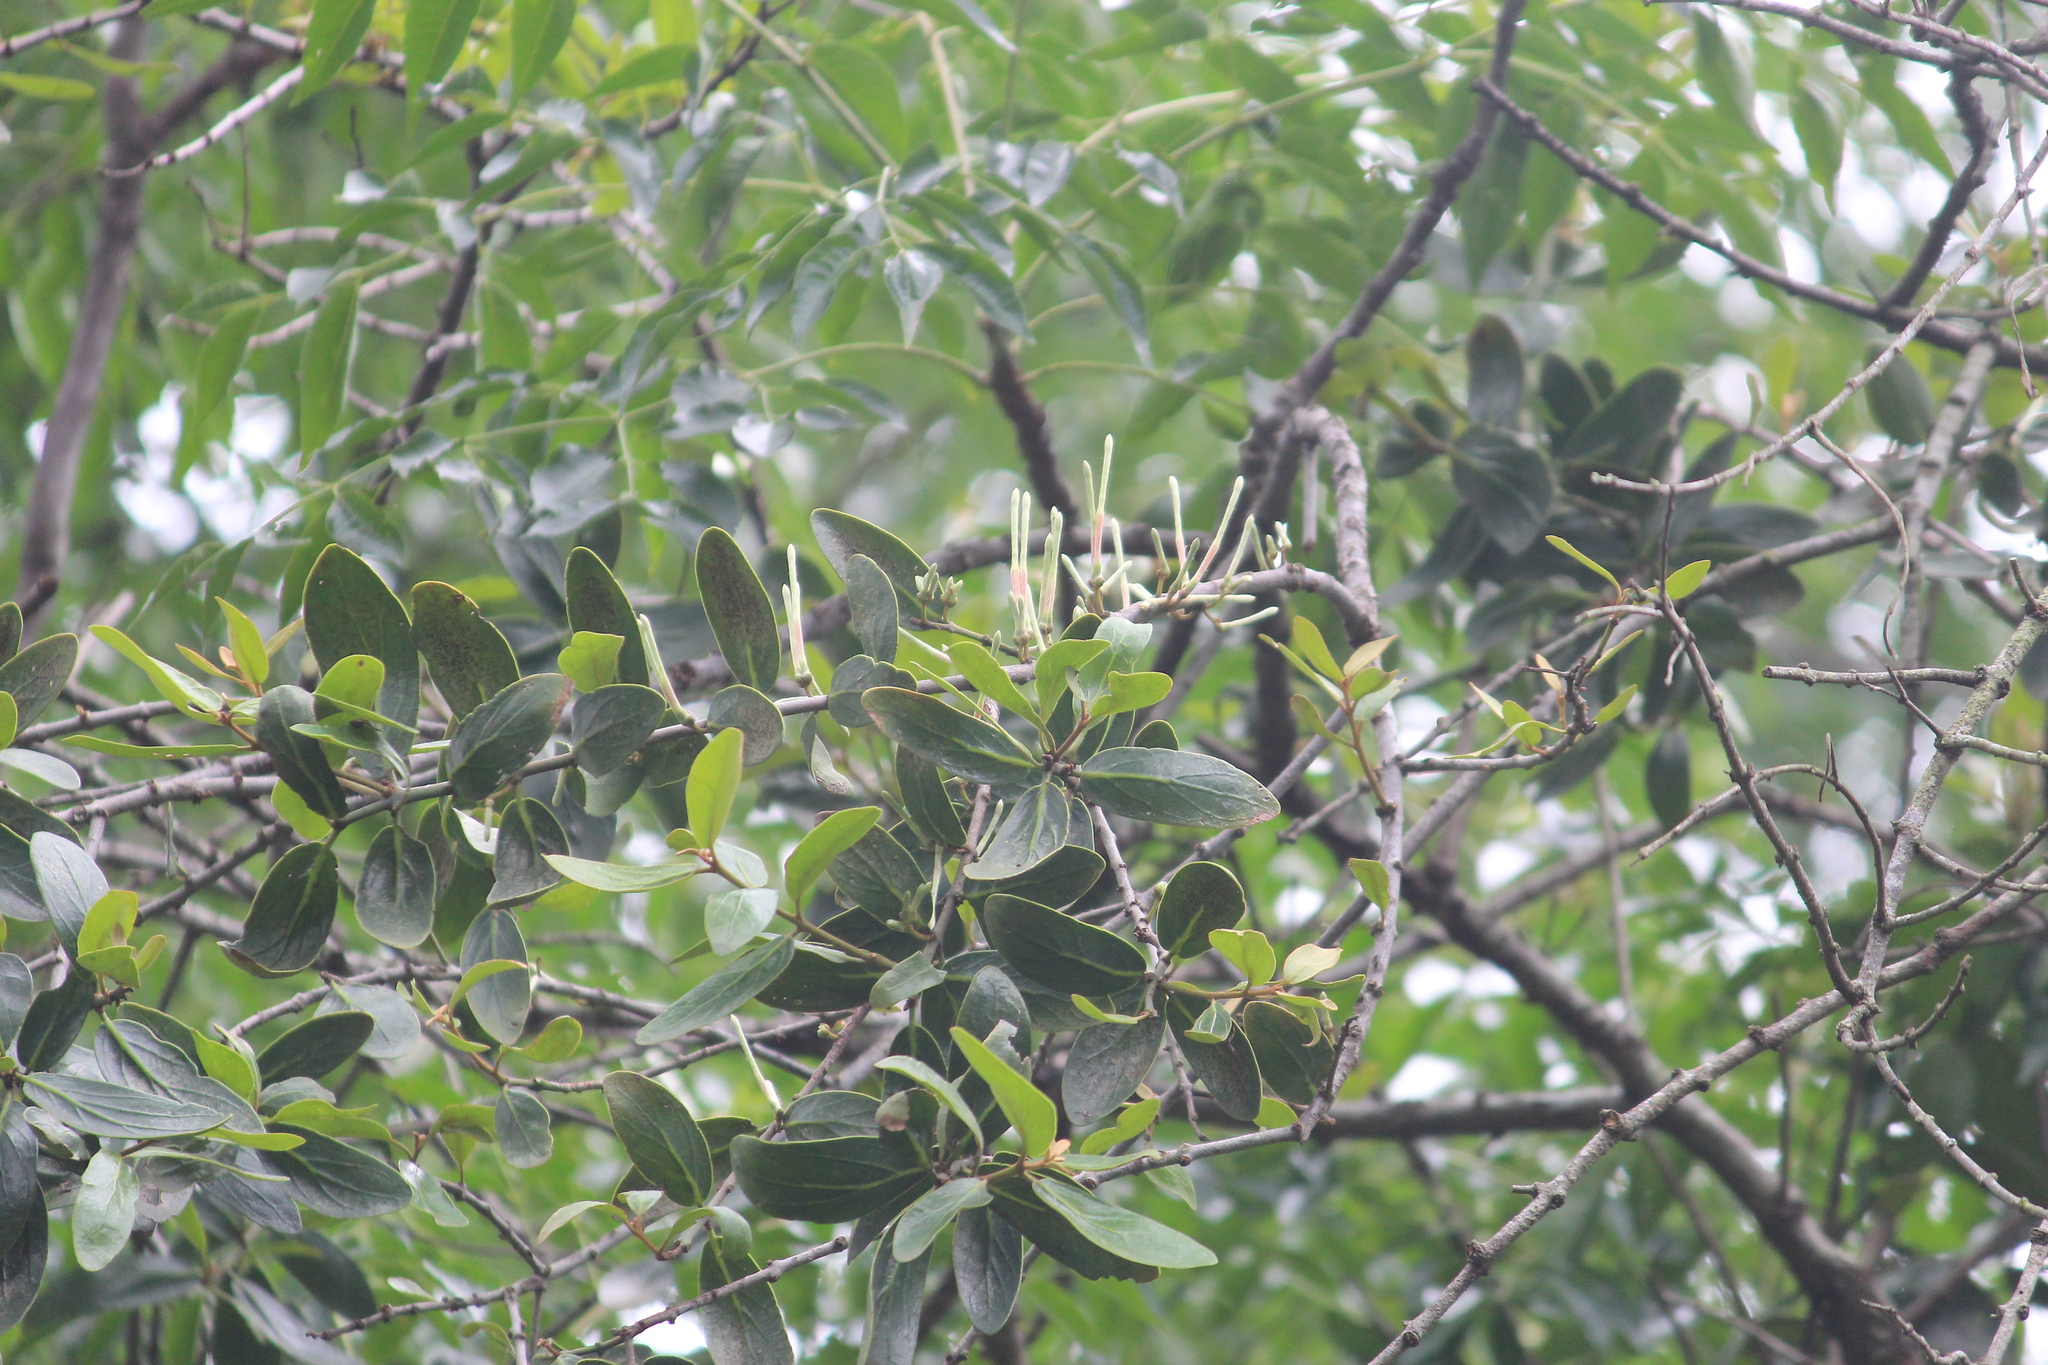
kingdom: Plantae
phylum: Tracheophyta
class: Magnoliopsida
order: Santalales
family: Loranthaceae
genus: Erianthemum
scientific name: Erianthemum dregei
